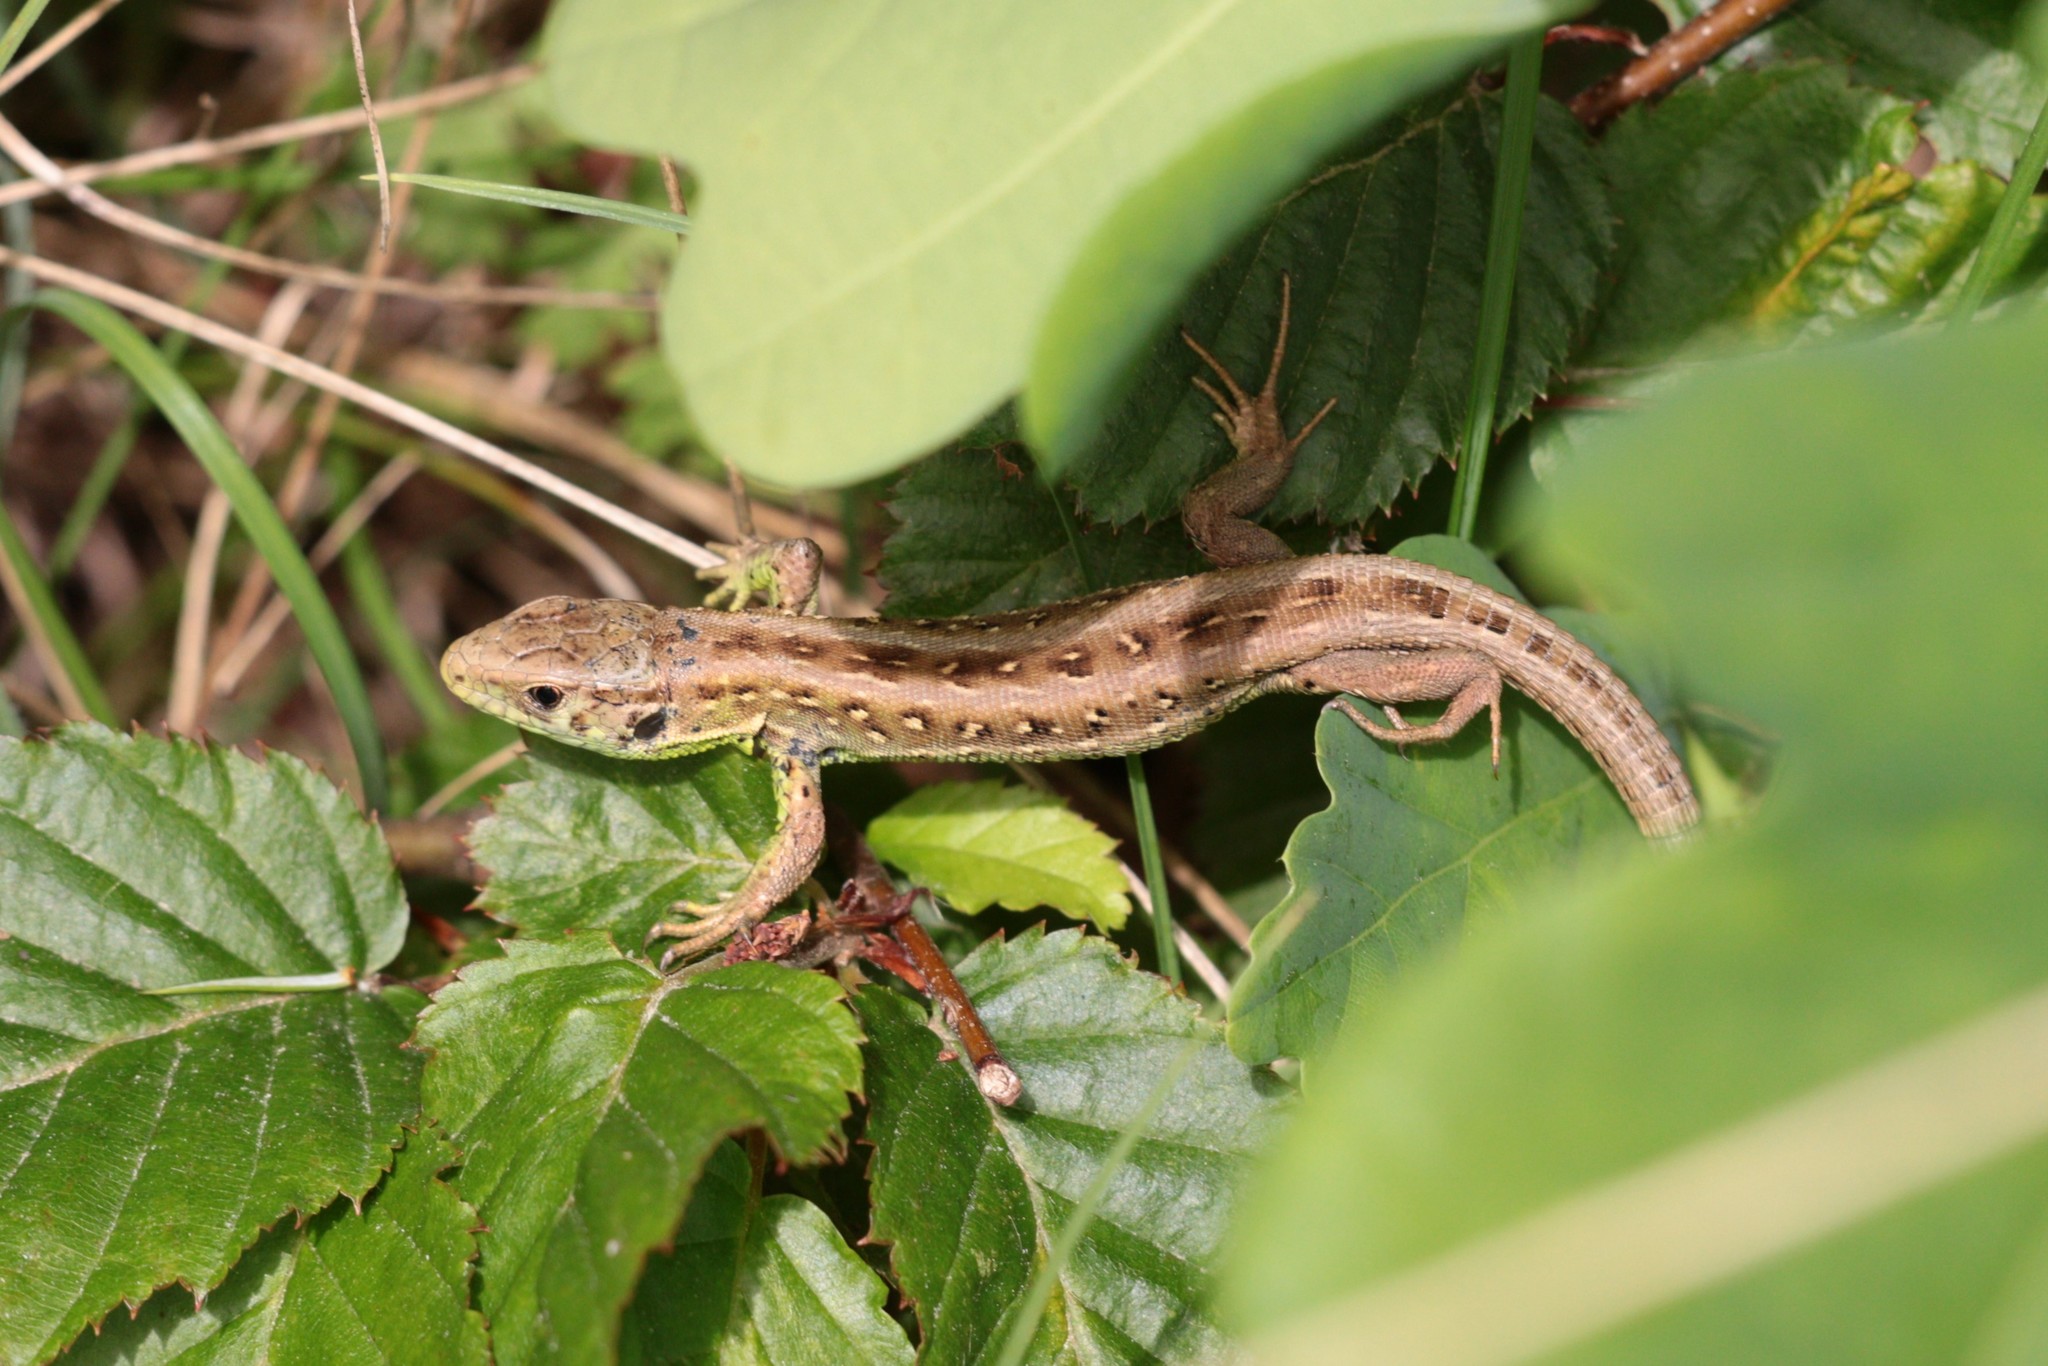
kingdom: Animalia
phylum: Chordata
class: Squamata
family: Lacertidae
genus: Lacerta
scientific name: Lacerta agilis
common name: Sand lizard
